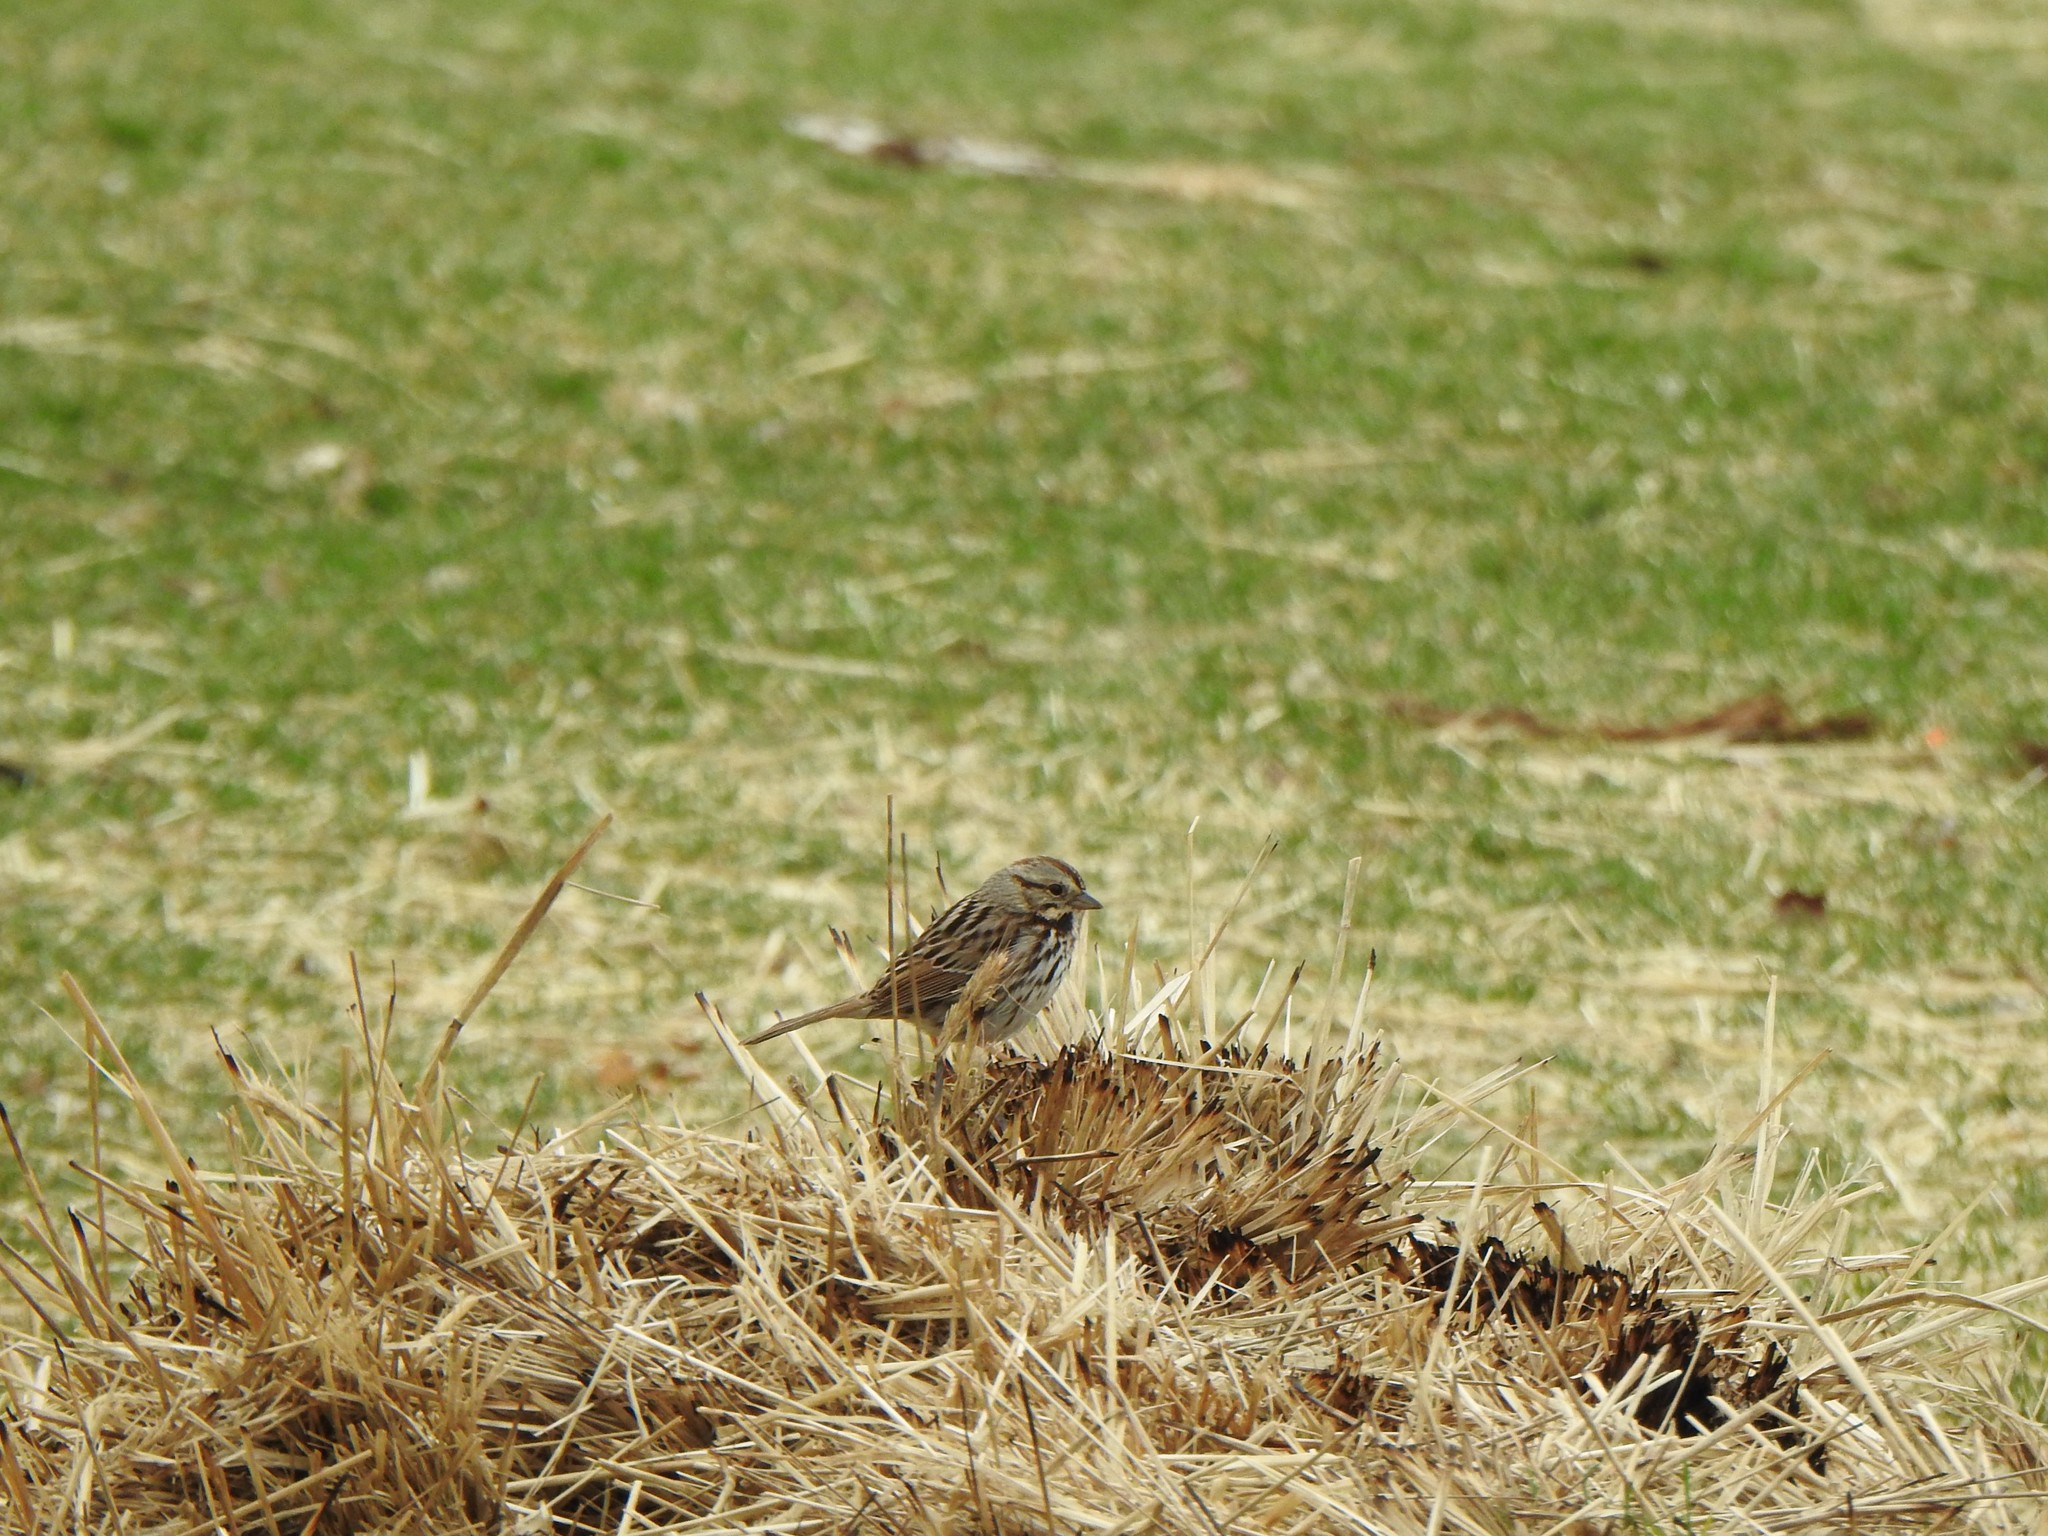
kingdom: Animalia
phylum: Chordata
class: Aves
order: Passeriformes
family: Passerellidae
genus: Melospiza
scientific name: Melospiza melodia
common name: Song sparrow
